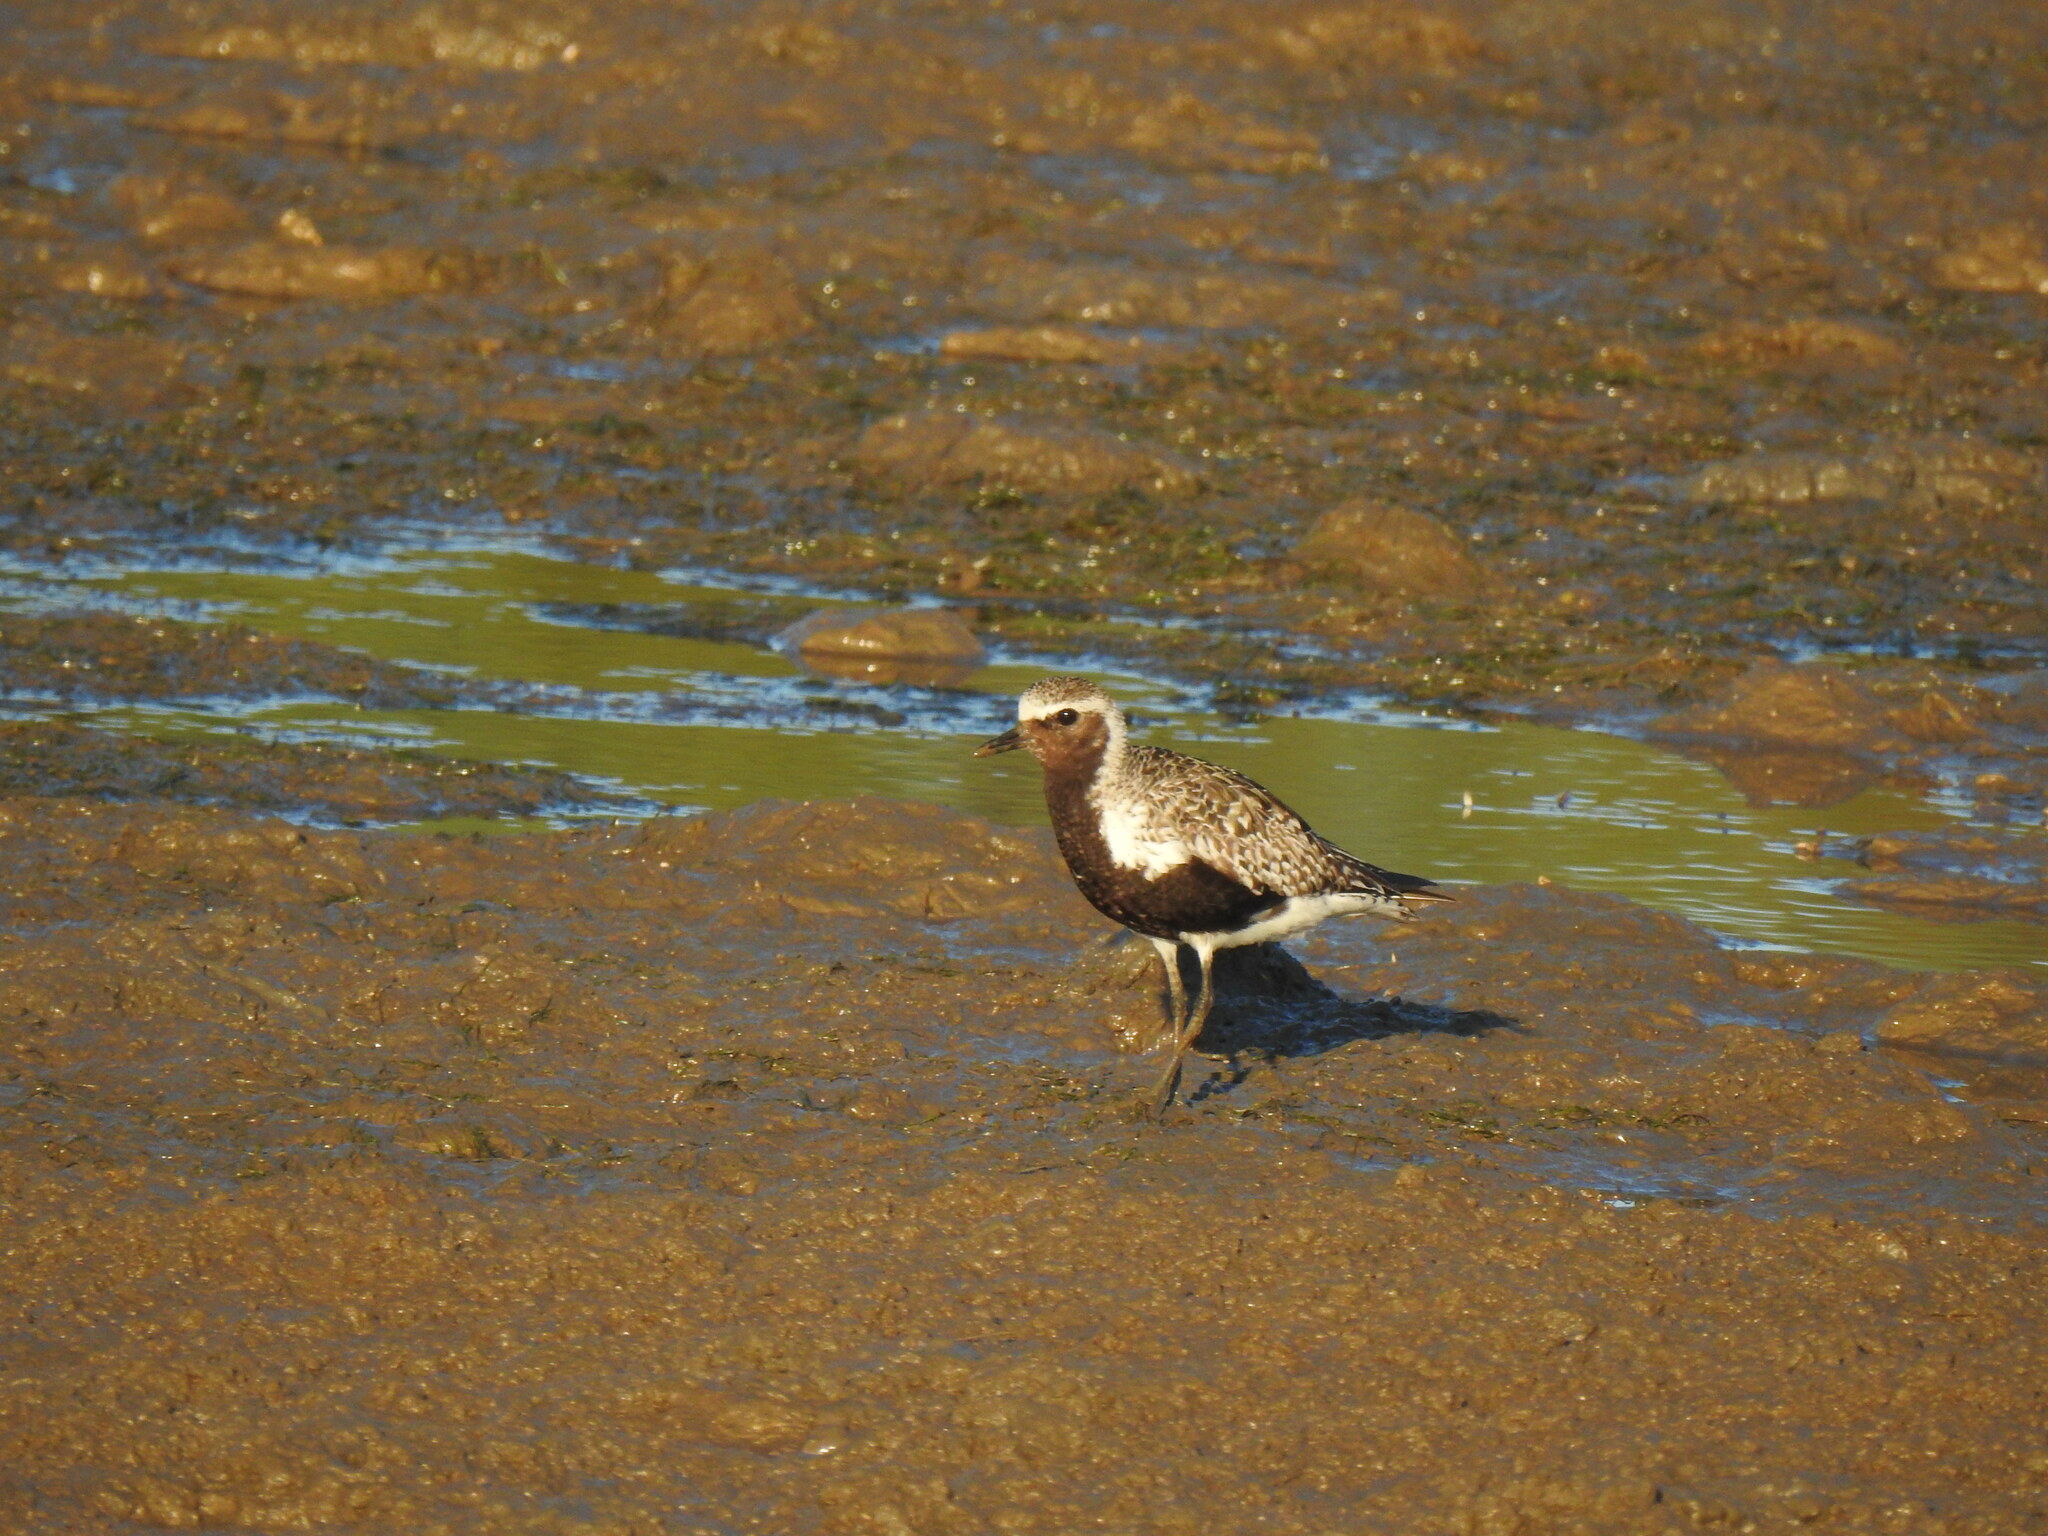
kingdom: Animalia
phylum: Chordata
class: Aves
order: Charadriiformes
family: Charadriidae
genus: Pluvialis
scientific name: Pluvialis squatarola
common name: Grey plover
